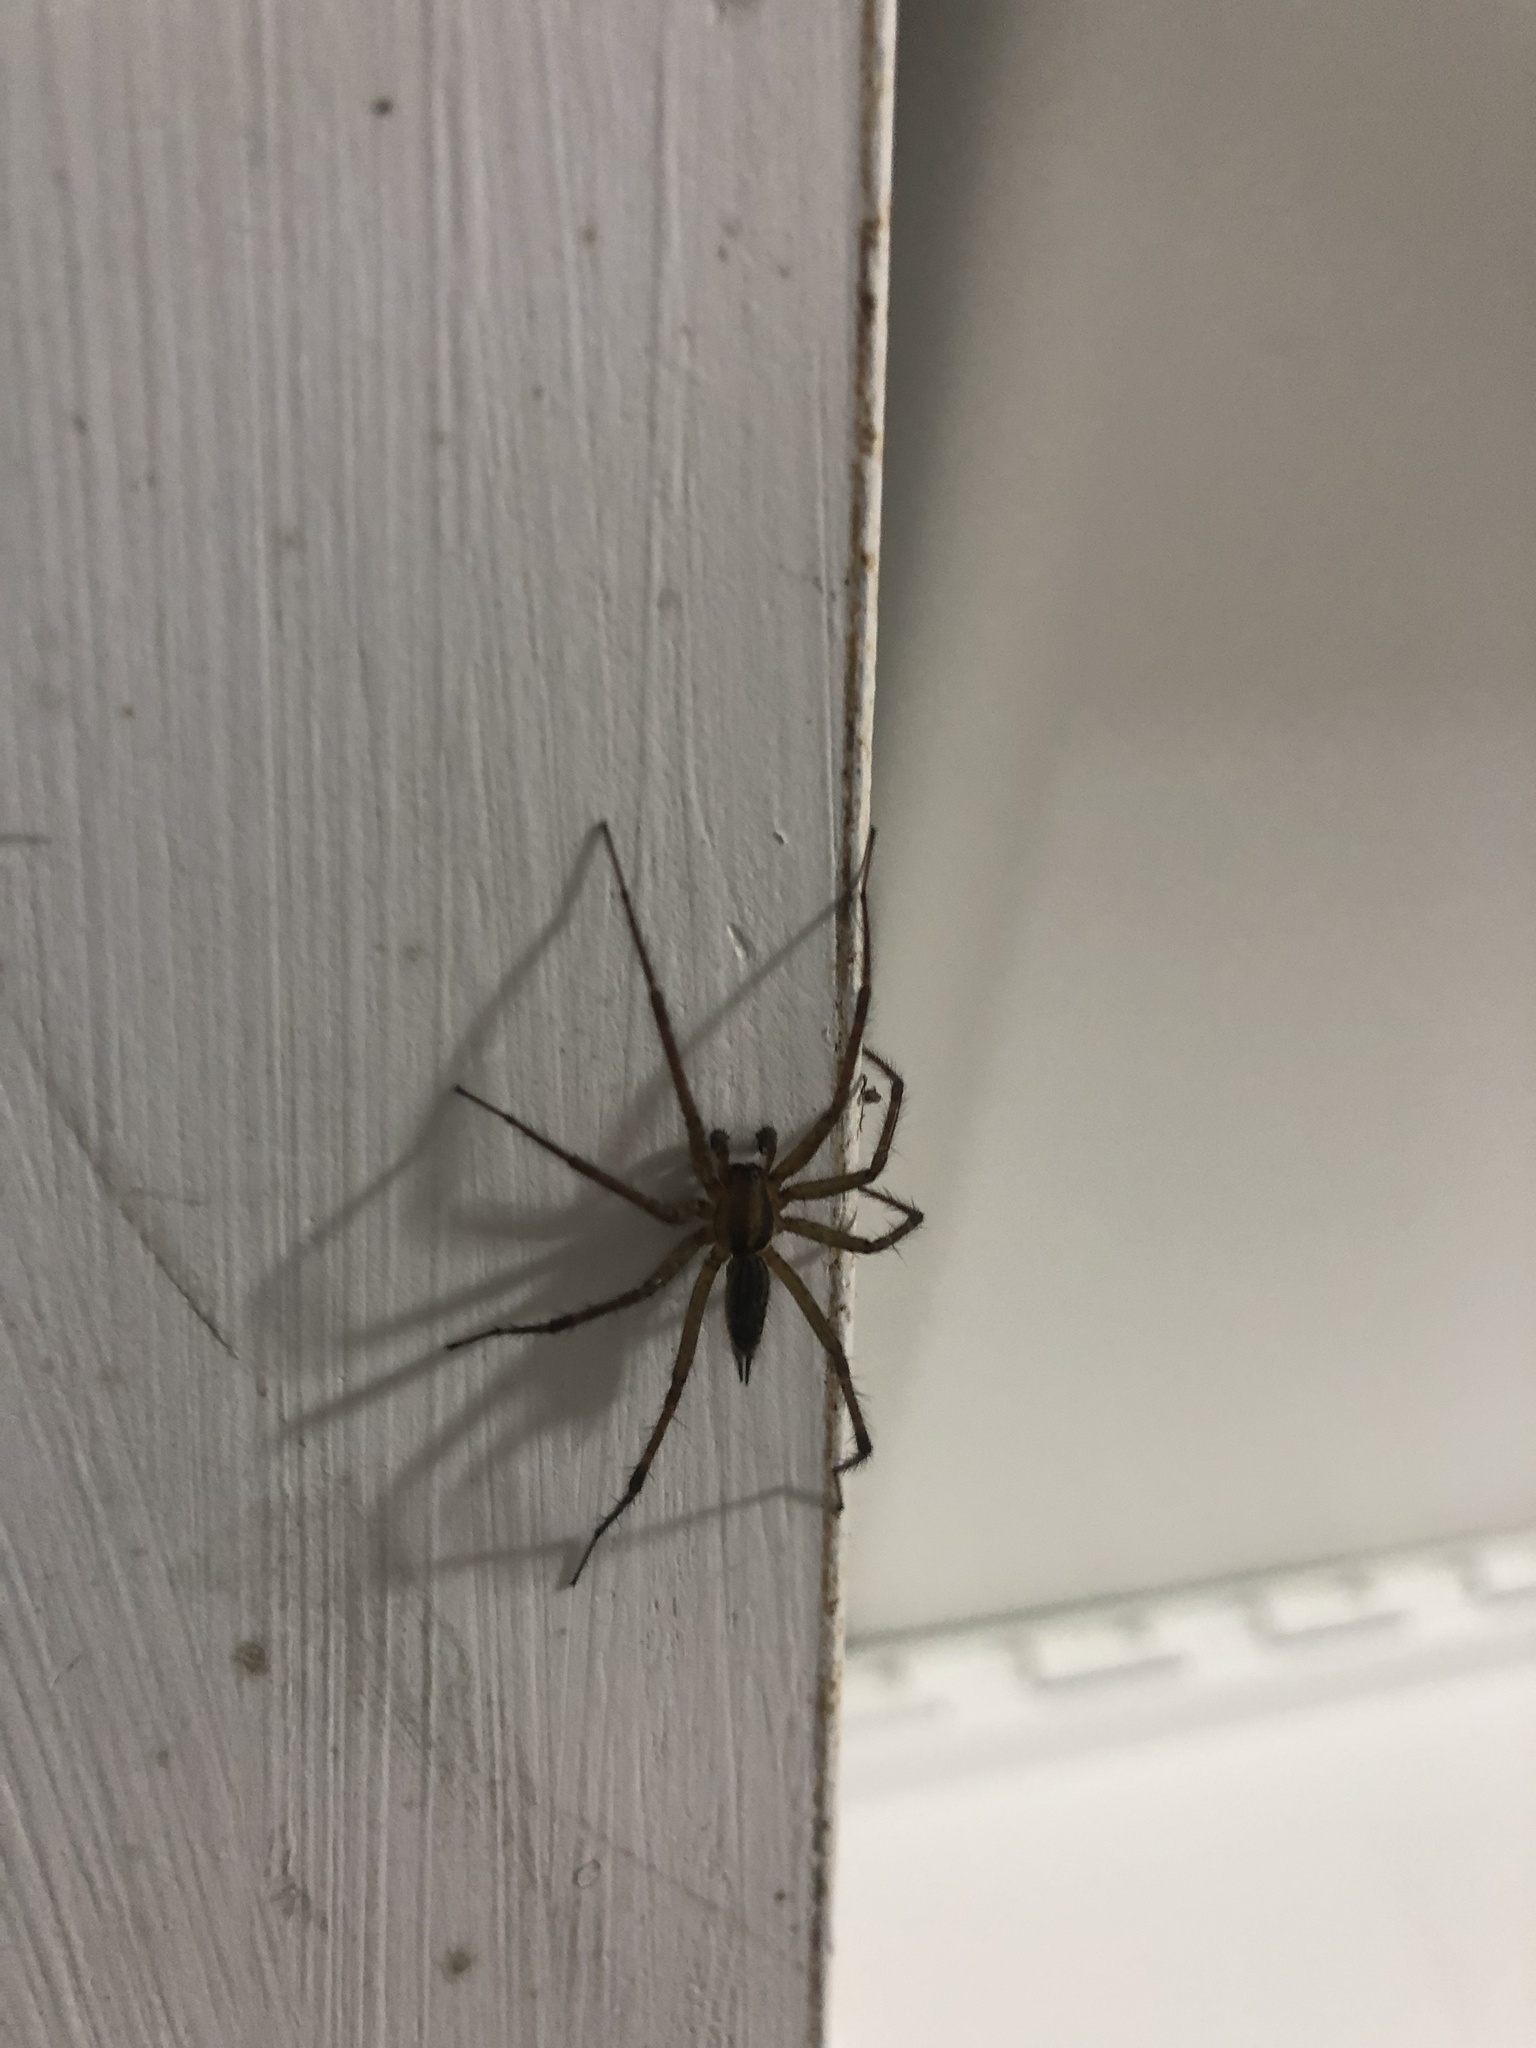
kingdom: Animalia
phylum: Arthropoda
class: Arachnida
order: Araneae
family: Agelenidae
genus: Agelenopsis
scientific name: Agelenopsis
